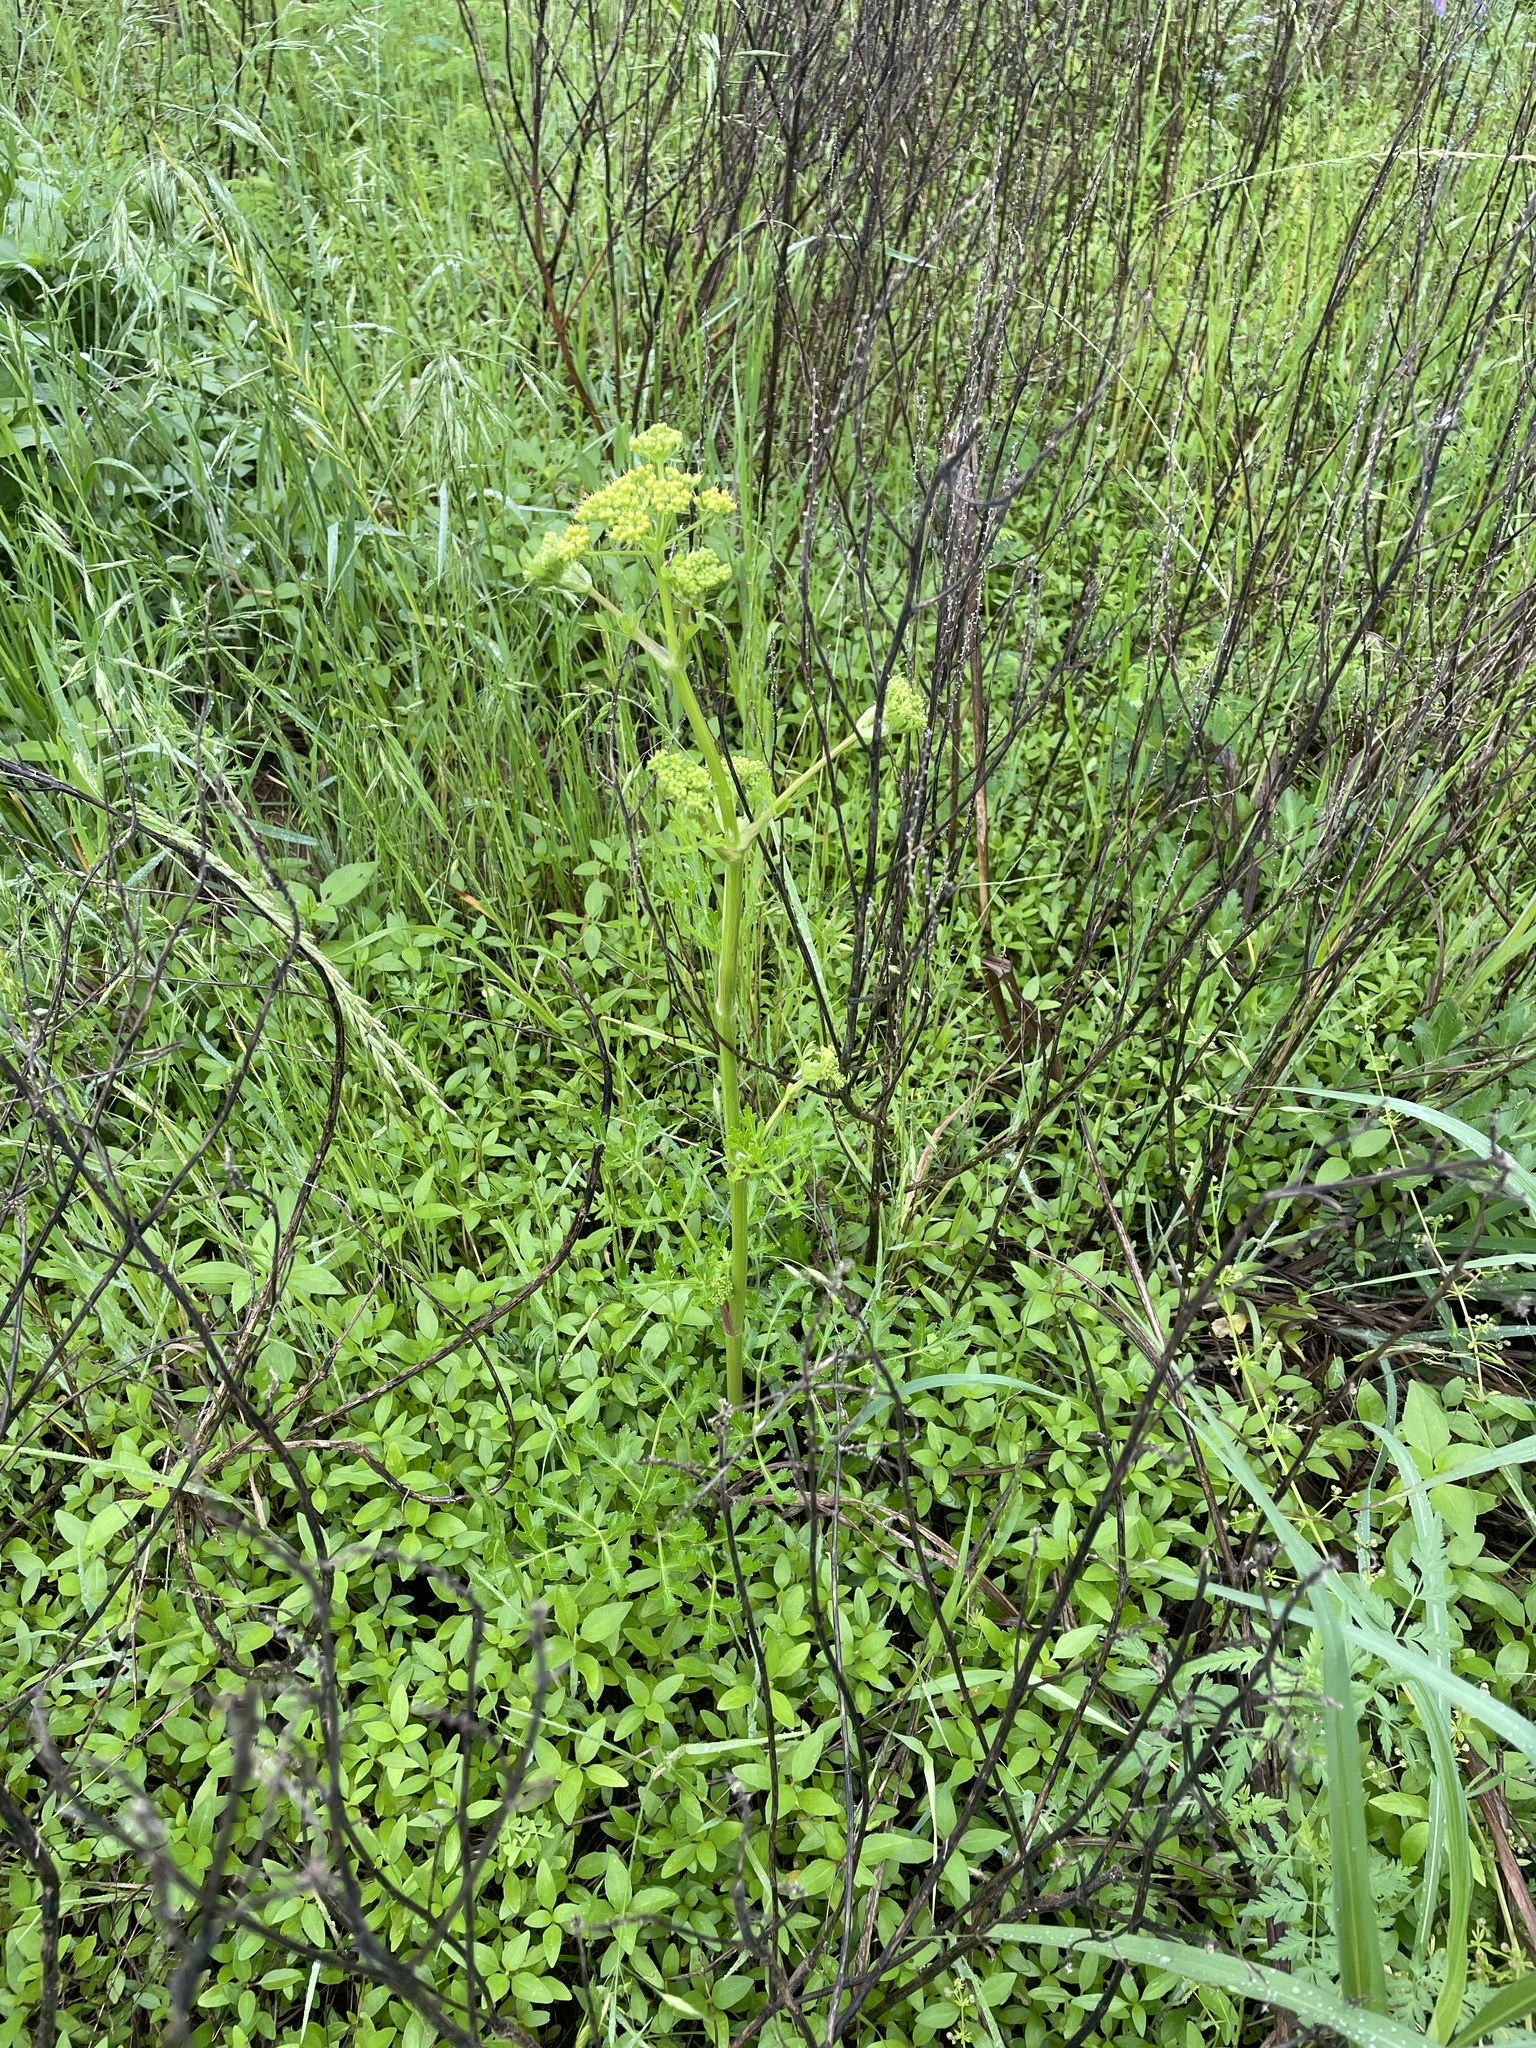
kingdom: Plantae
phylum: Tracheophyta
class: Magnoliopsida
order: Apiales
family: Apiaceae
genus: Polytaenia
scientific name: Polytaenia texana
